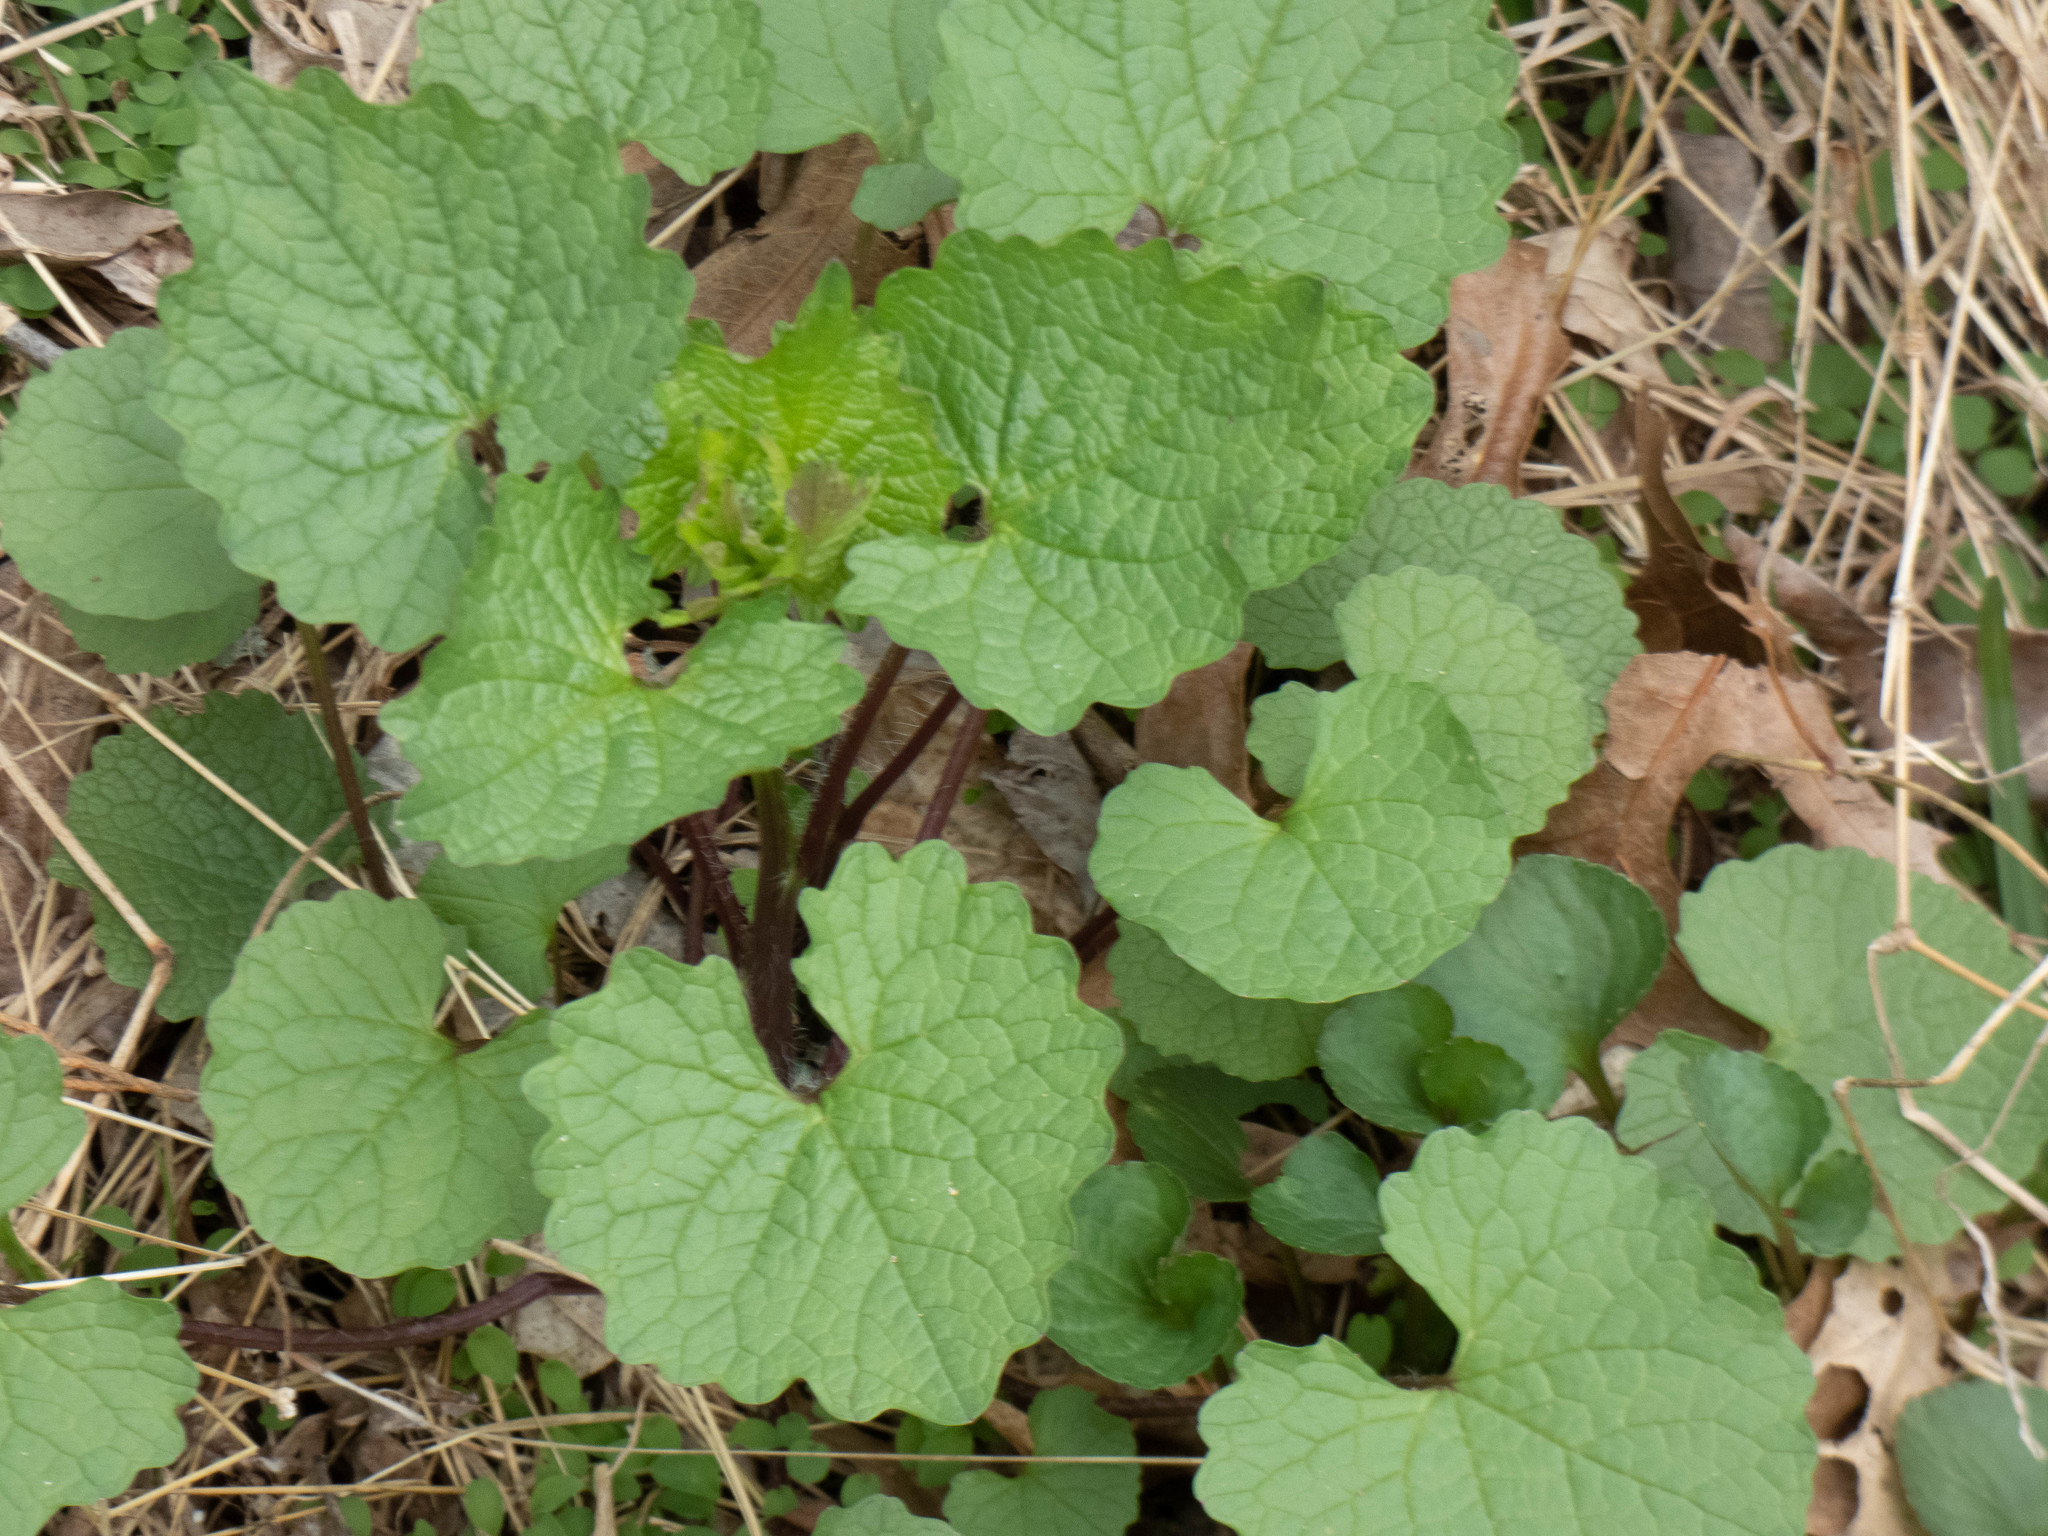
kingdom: Plantae
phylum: Tracheophyta
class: Magnoliopsida
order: Brassicales
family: Brassicaceae
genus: Alliaria
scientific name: Alliaria petiolata
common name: Garlic mustard
